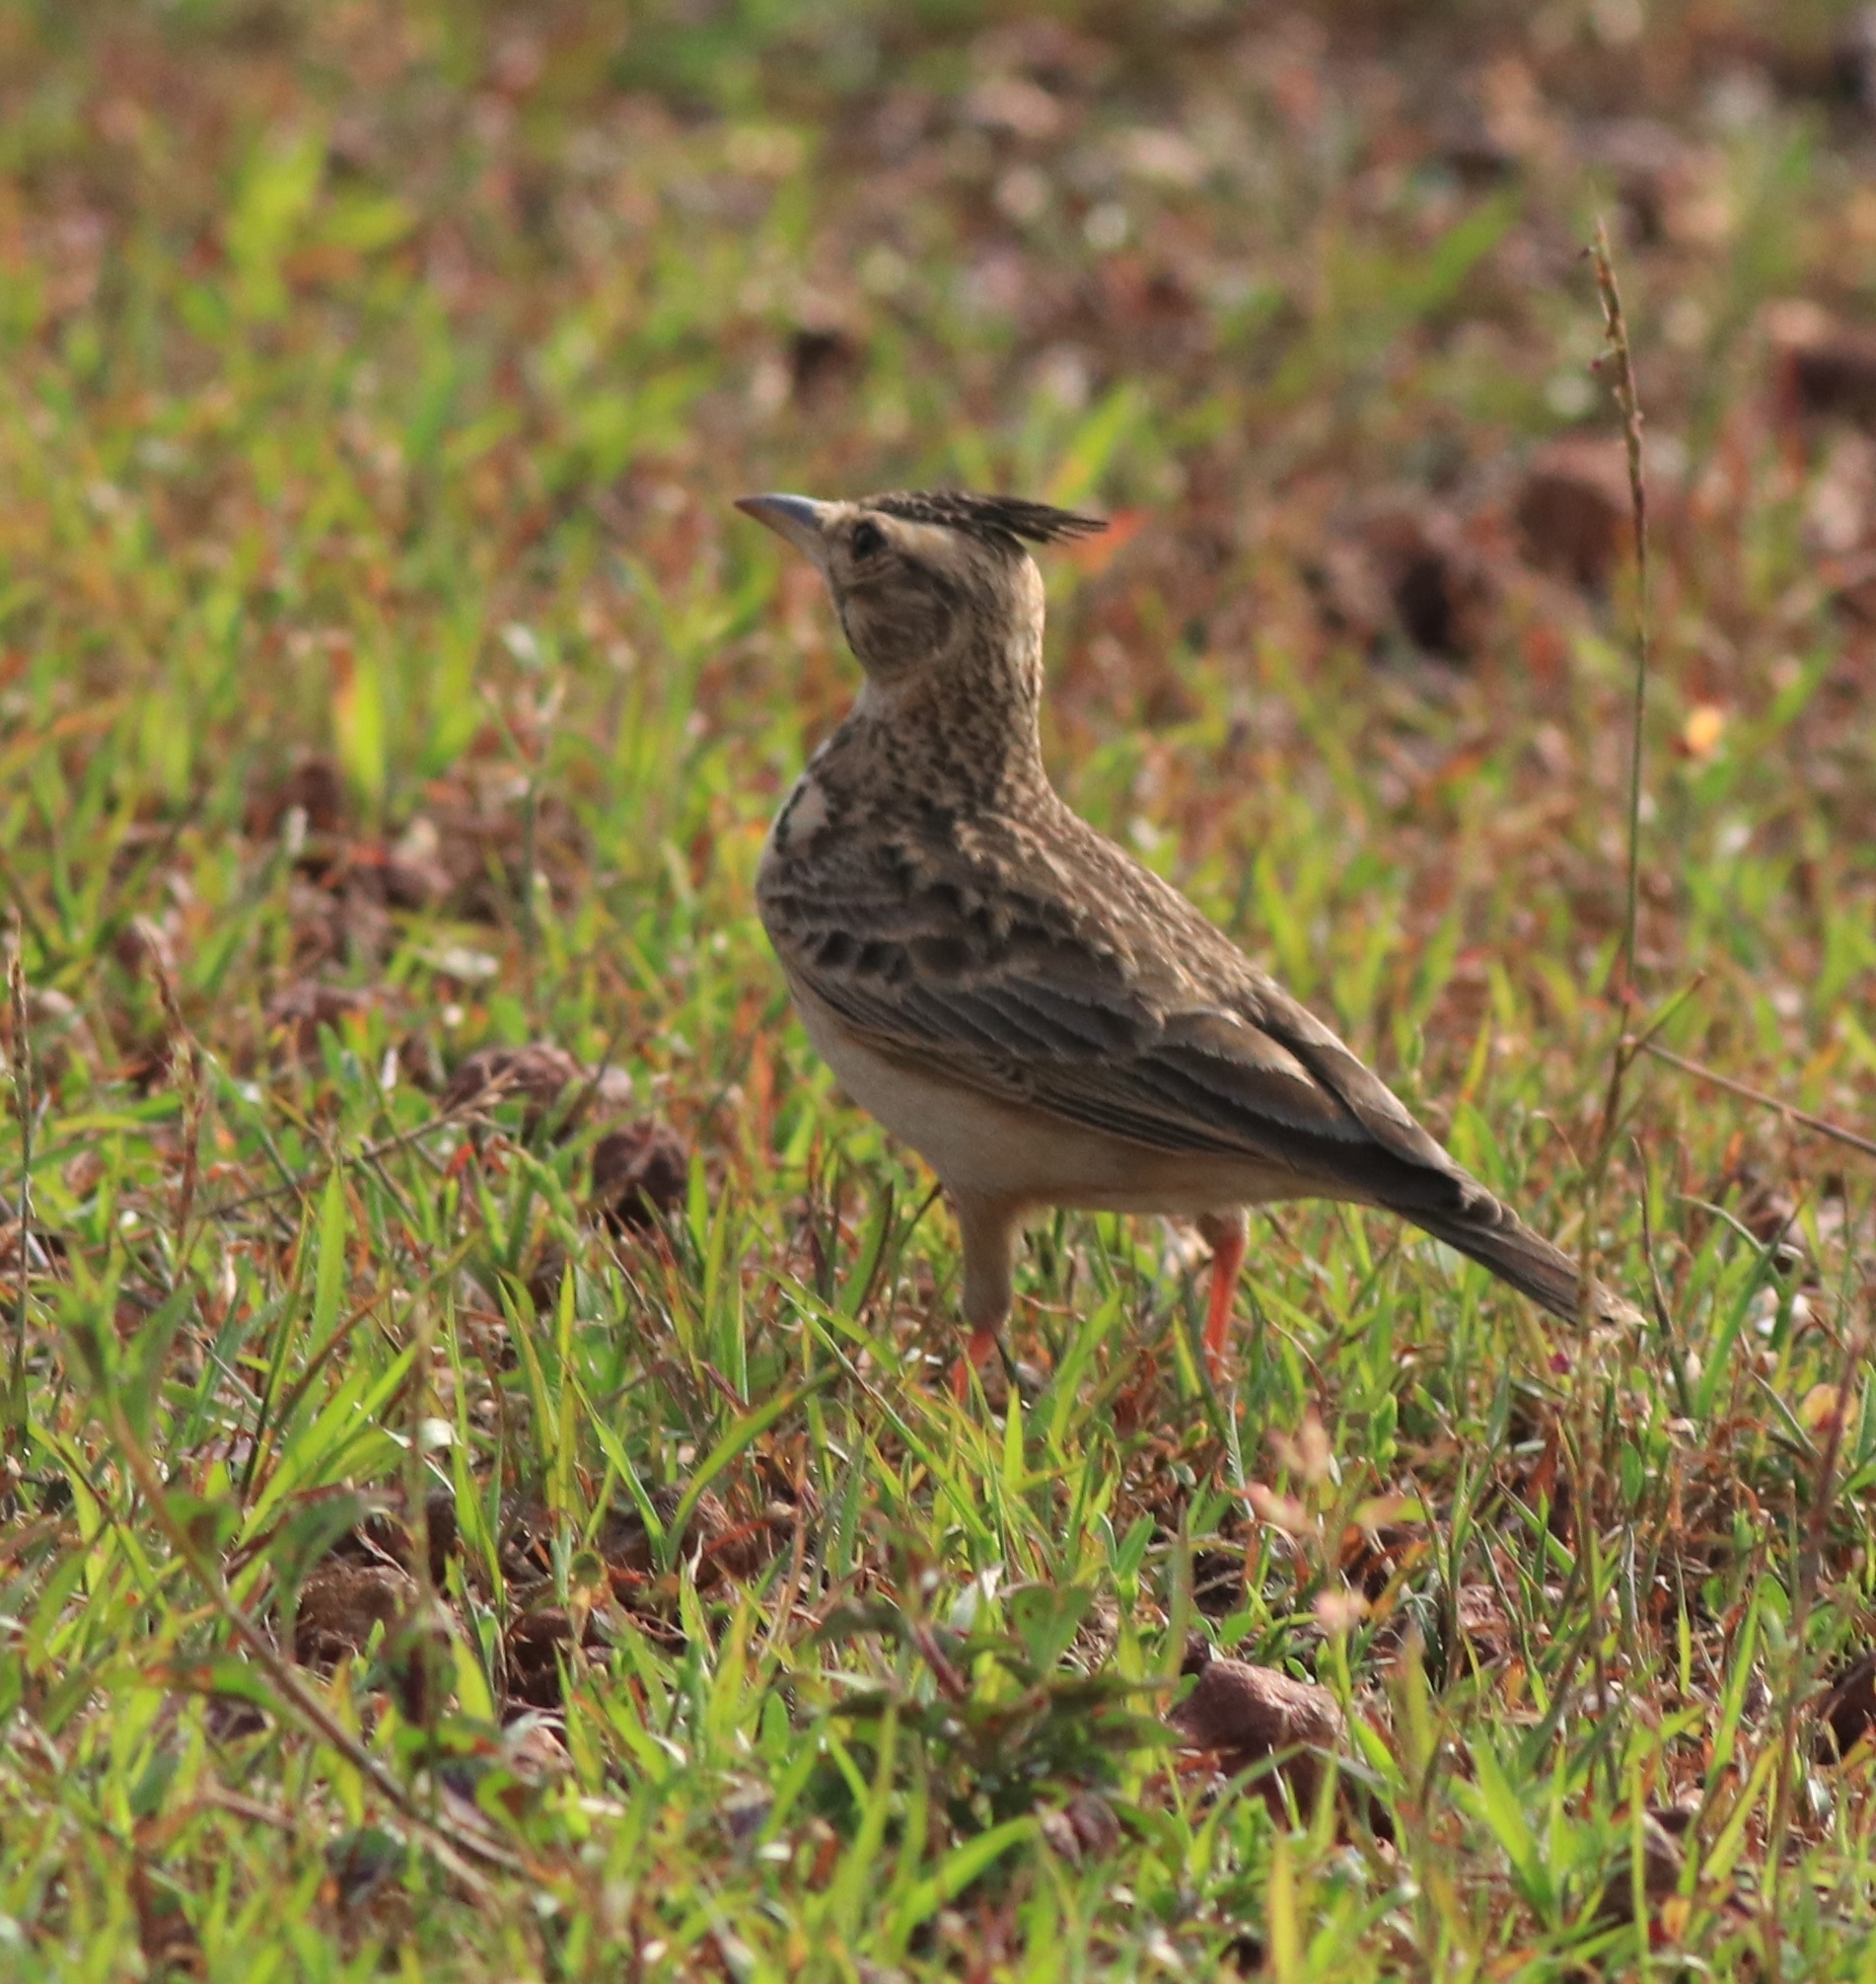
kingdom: Animalia
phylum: Chordata
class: Aves
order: Passeriformes
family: Alaudidae
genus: Galerida
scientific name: Galerida malabarica
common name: Malabar lark
